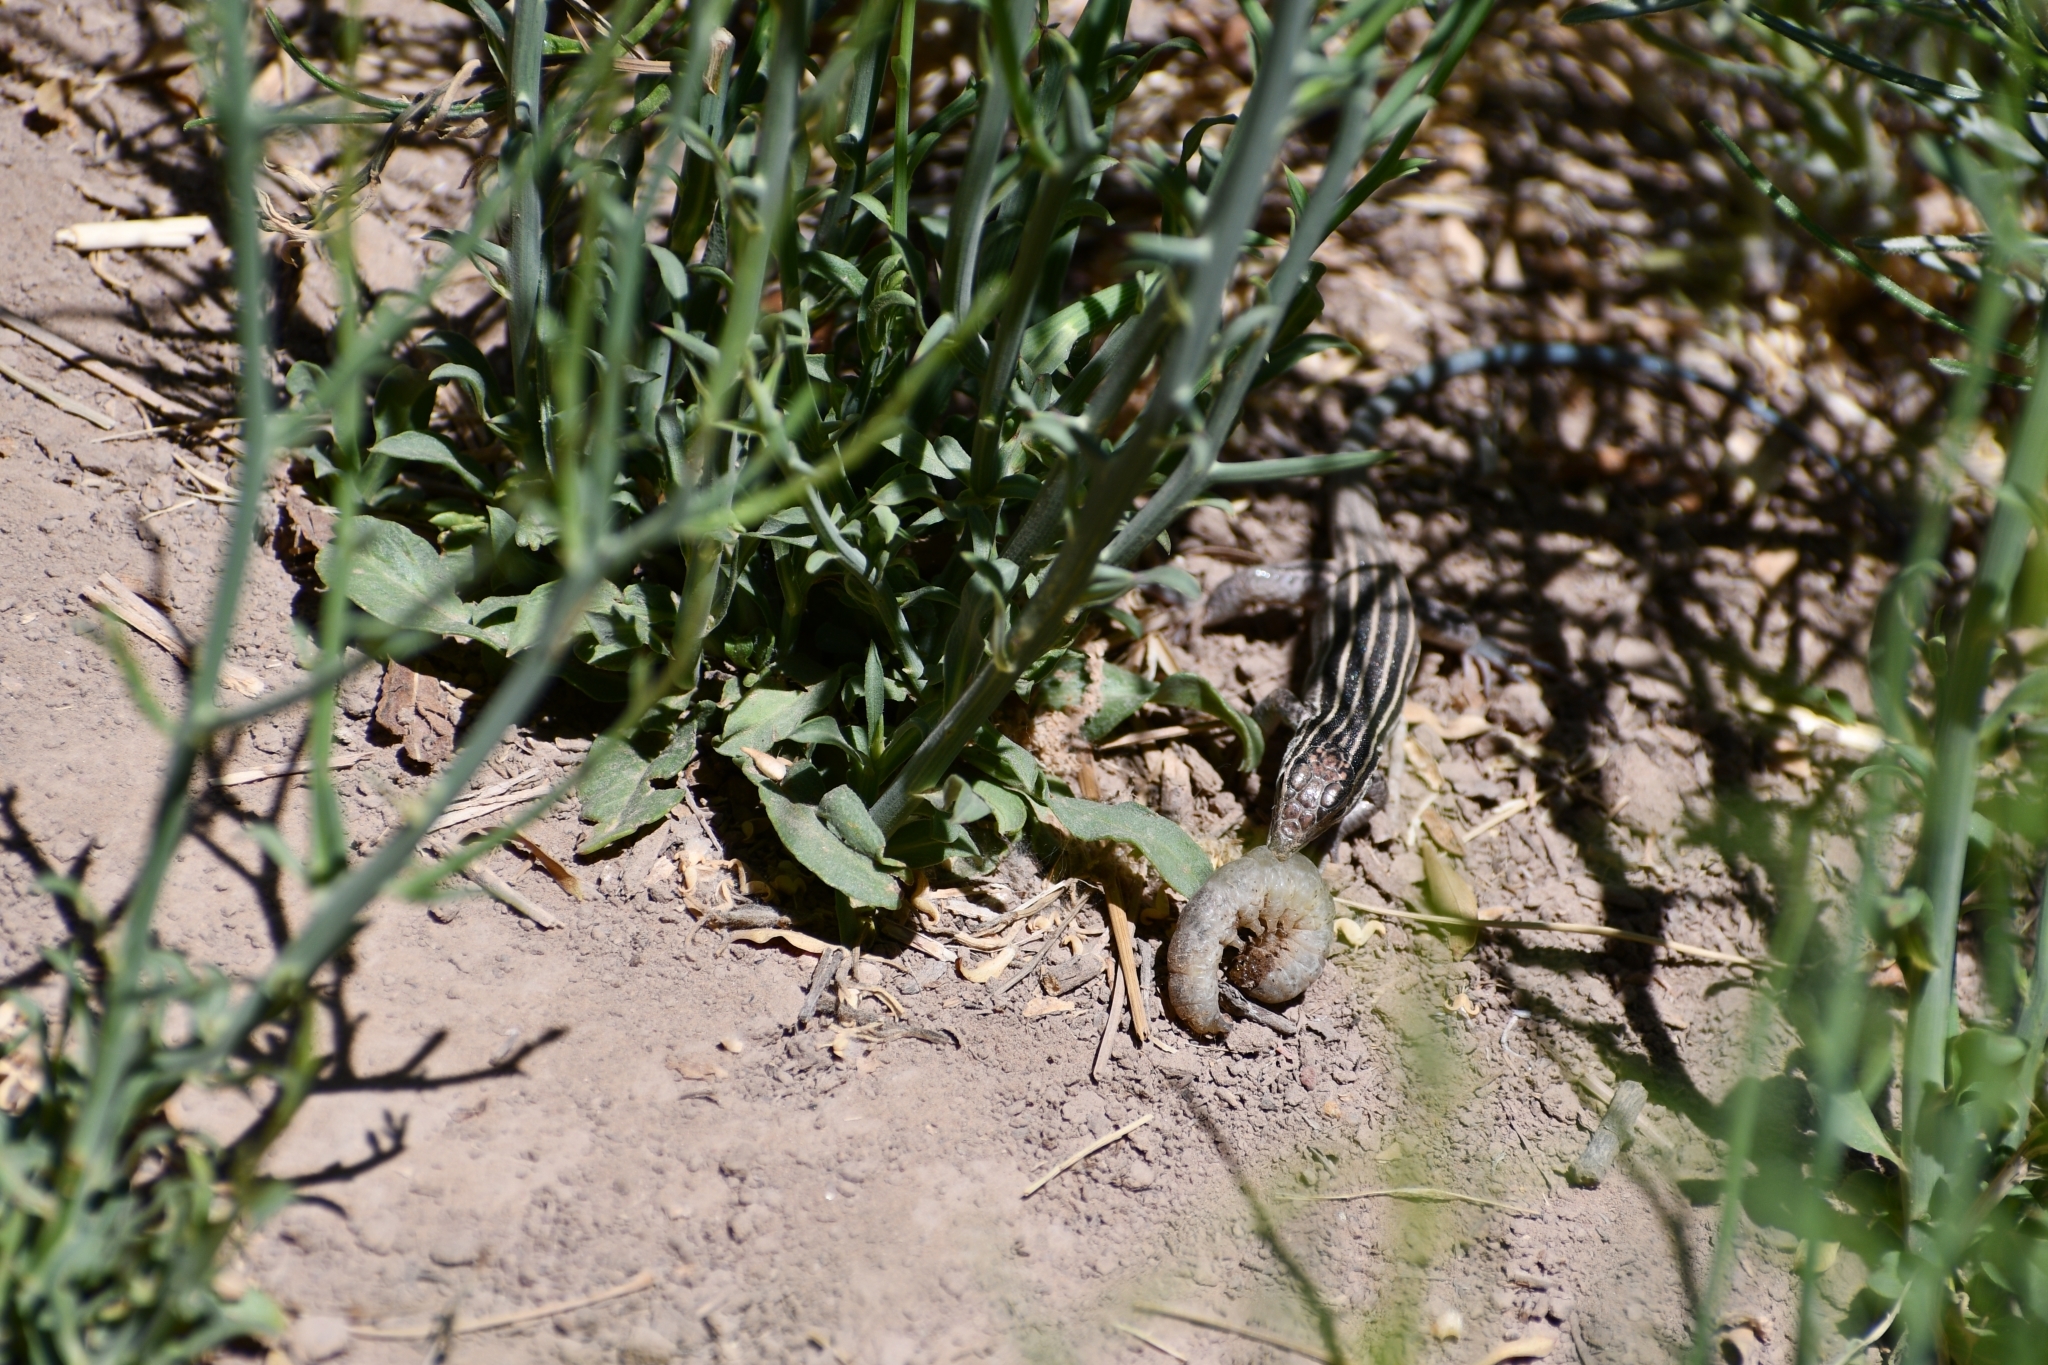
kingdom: Animalia
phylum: Chordata
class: Squamata
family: Teiidae
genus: Aspidoscelis
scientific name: Aspidoscelis uniparens
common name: Desert grassland whiptail
